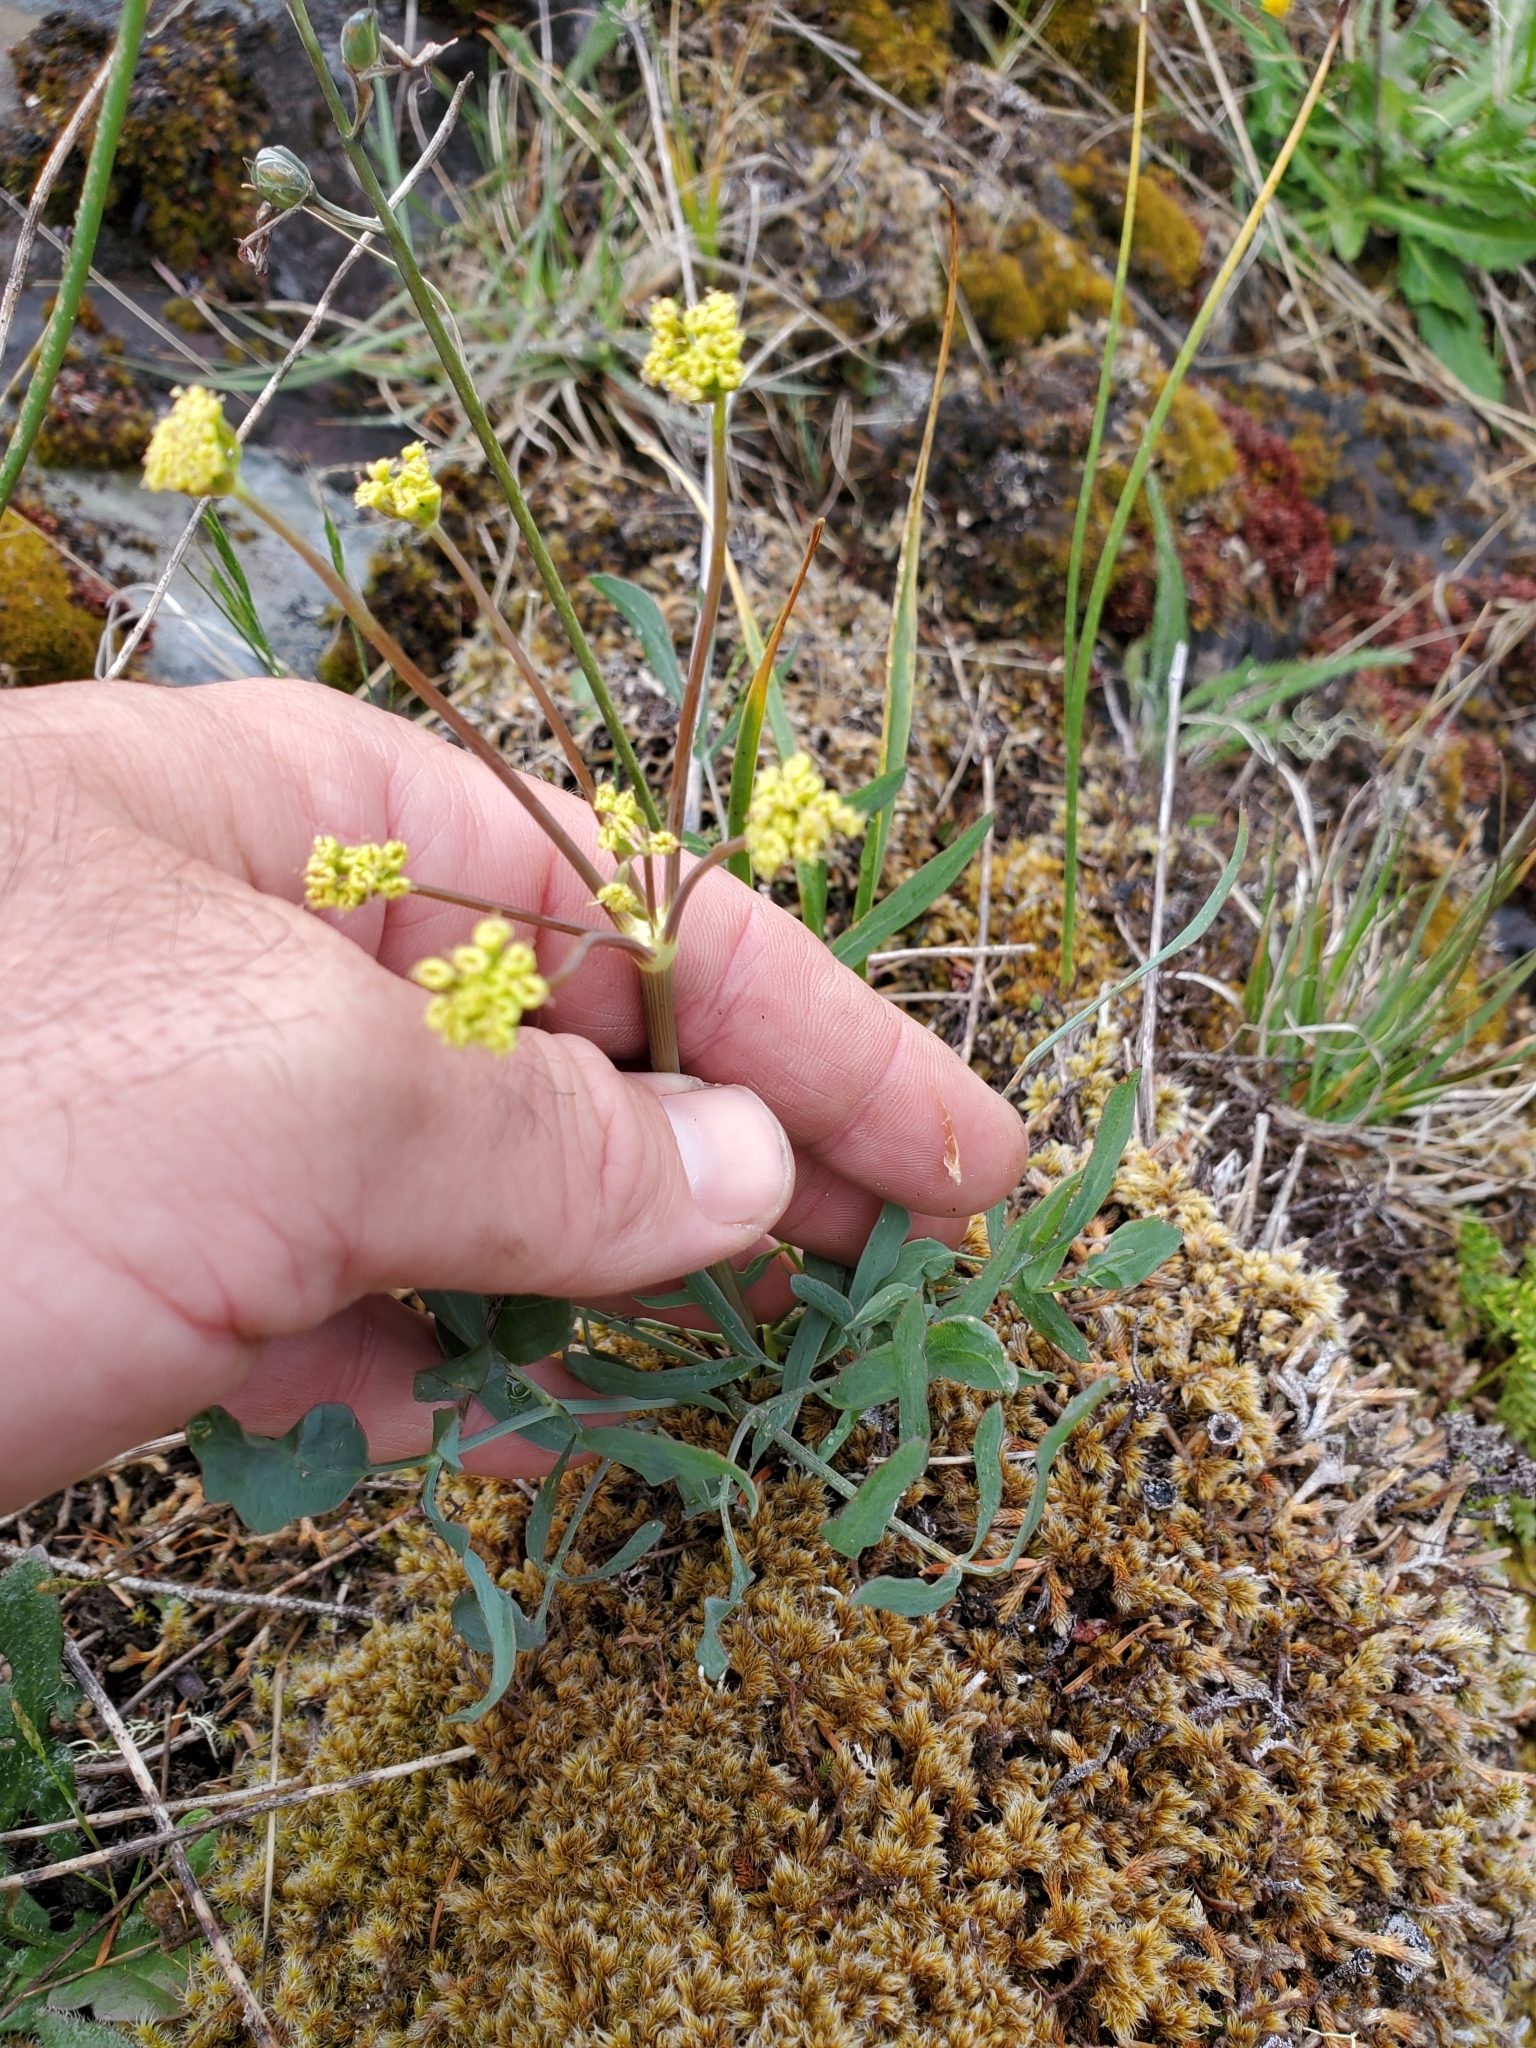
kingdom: Plantae
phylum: Tracheophyta
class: Magnoliopsida
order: Apiales
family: Apiaceae
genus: Lomatium
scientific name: Lomatium nudicaule
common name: Pestle lomatium
